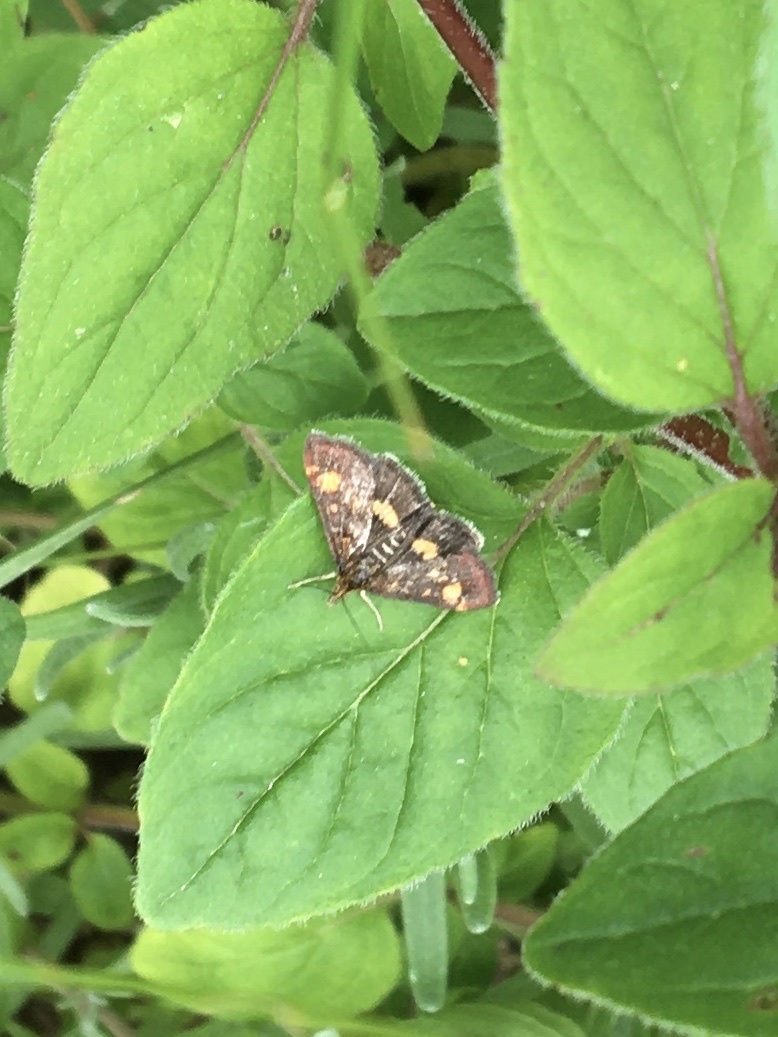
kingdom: Animalia
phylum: Arthropoda
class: Insecta
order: Lepidoptera
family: Crambidae
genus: Pyrausta
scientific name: Pyrausta aurata
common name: Small purple & gold
